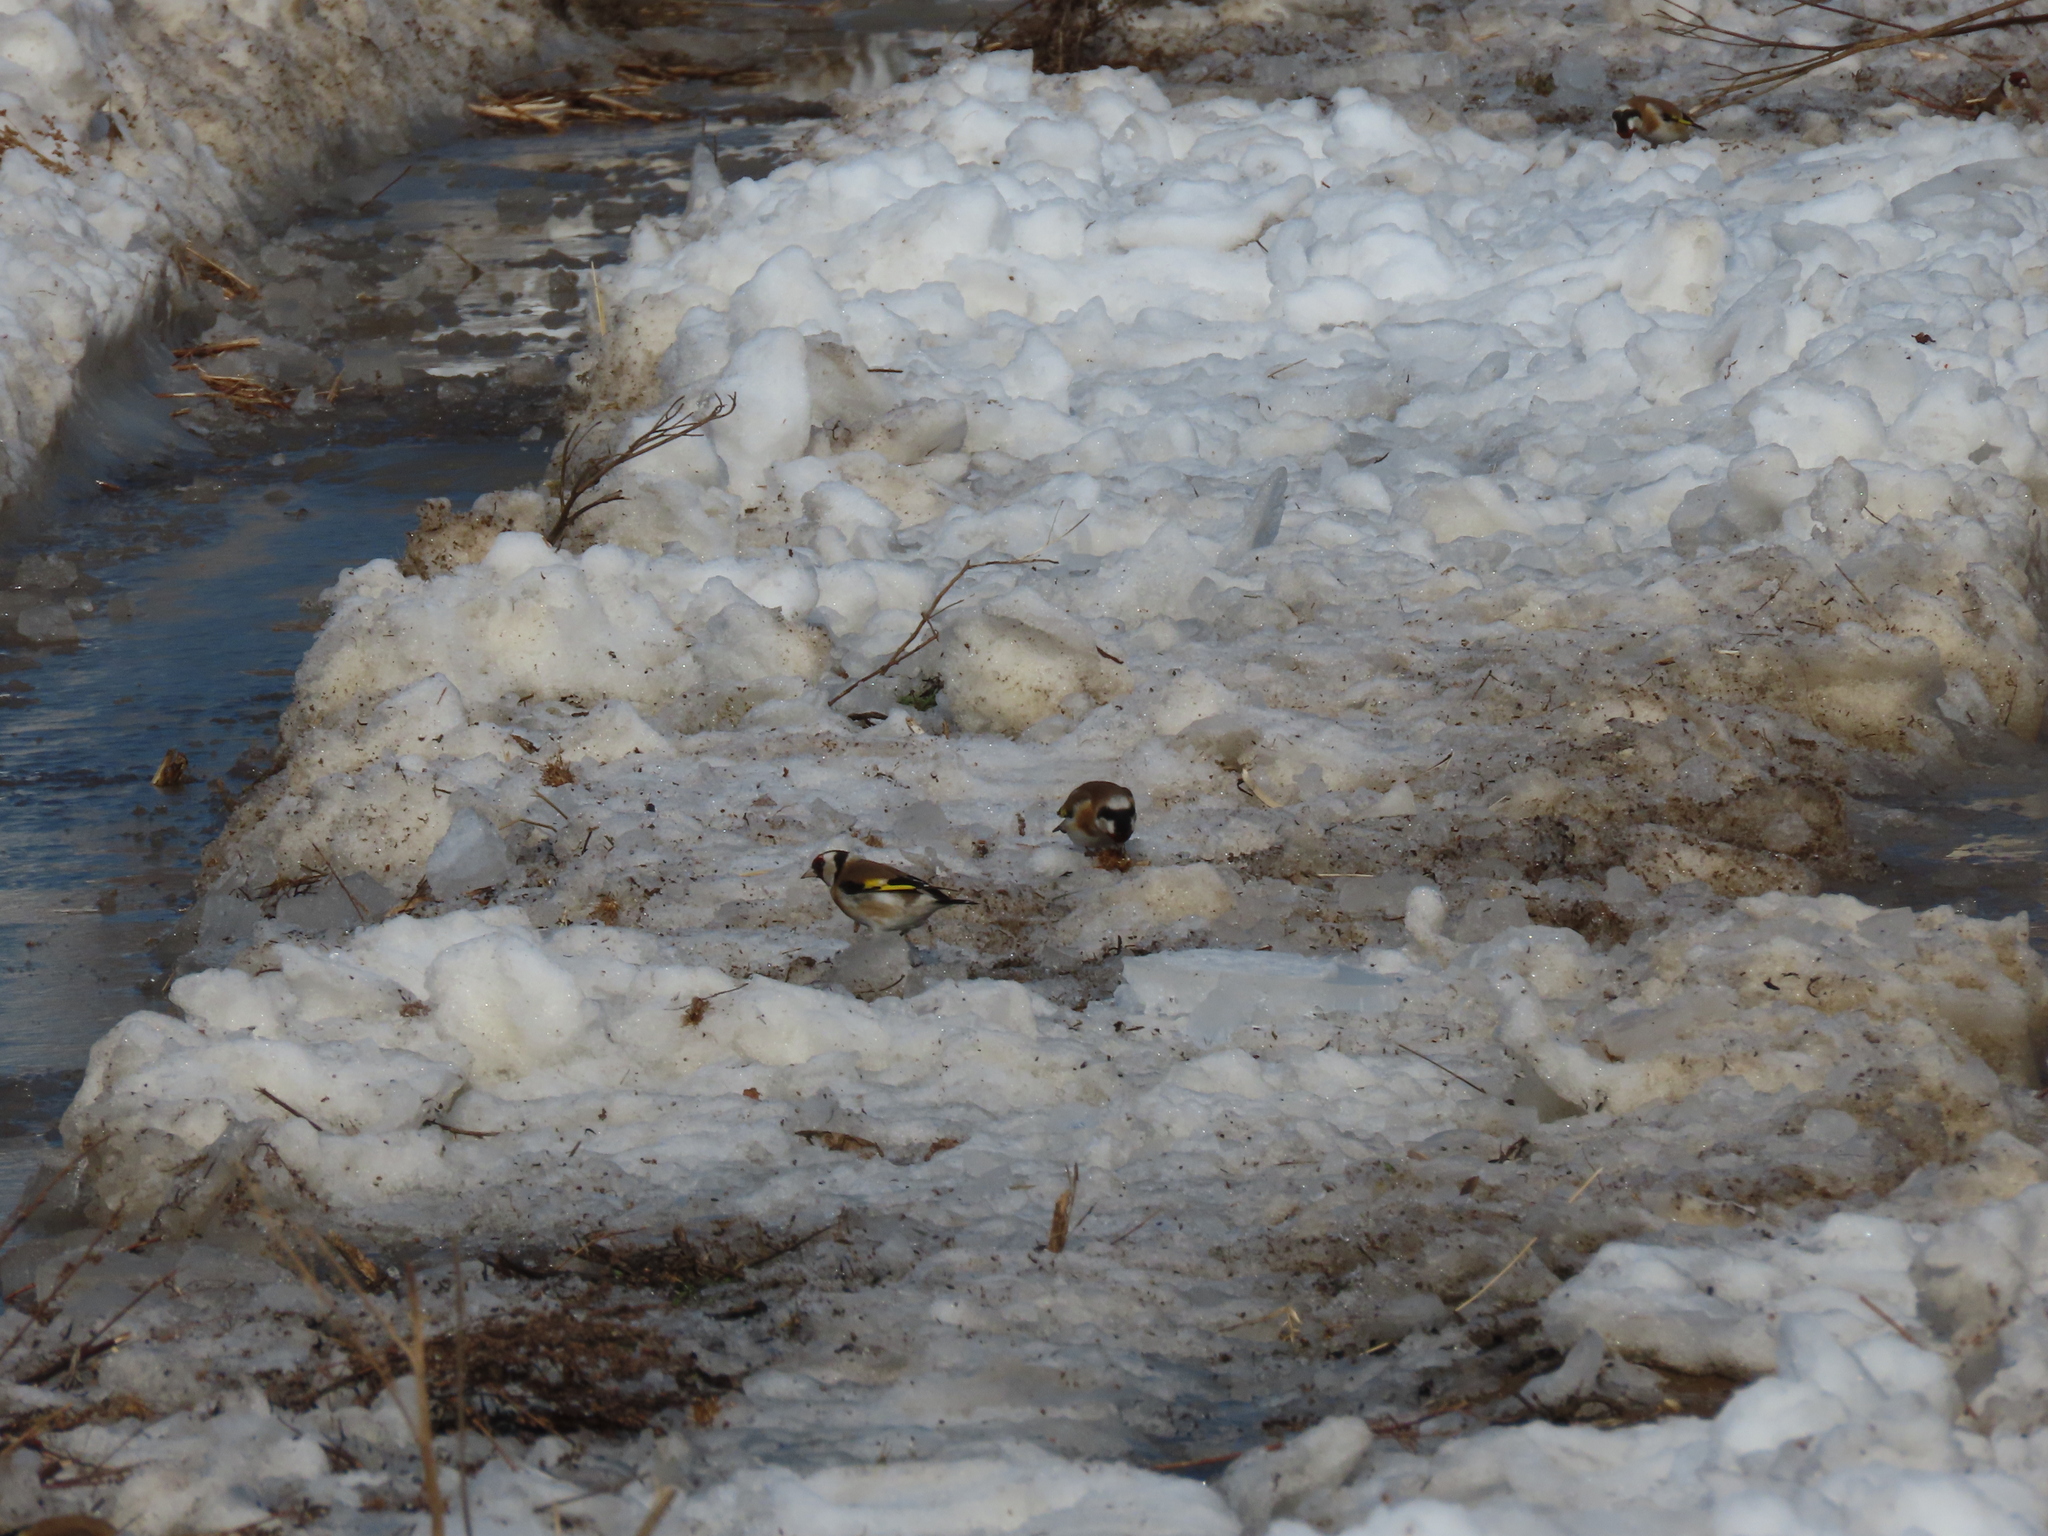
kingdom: Animalia
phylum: Chordata
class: Aves
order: Passeriformes
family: Fringillidae
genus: Carduelis
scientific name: Carduelis carduelis
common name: European goldfinch
